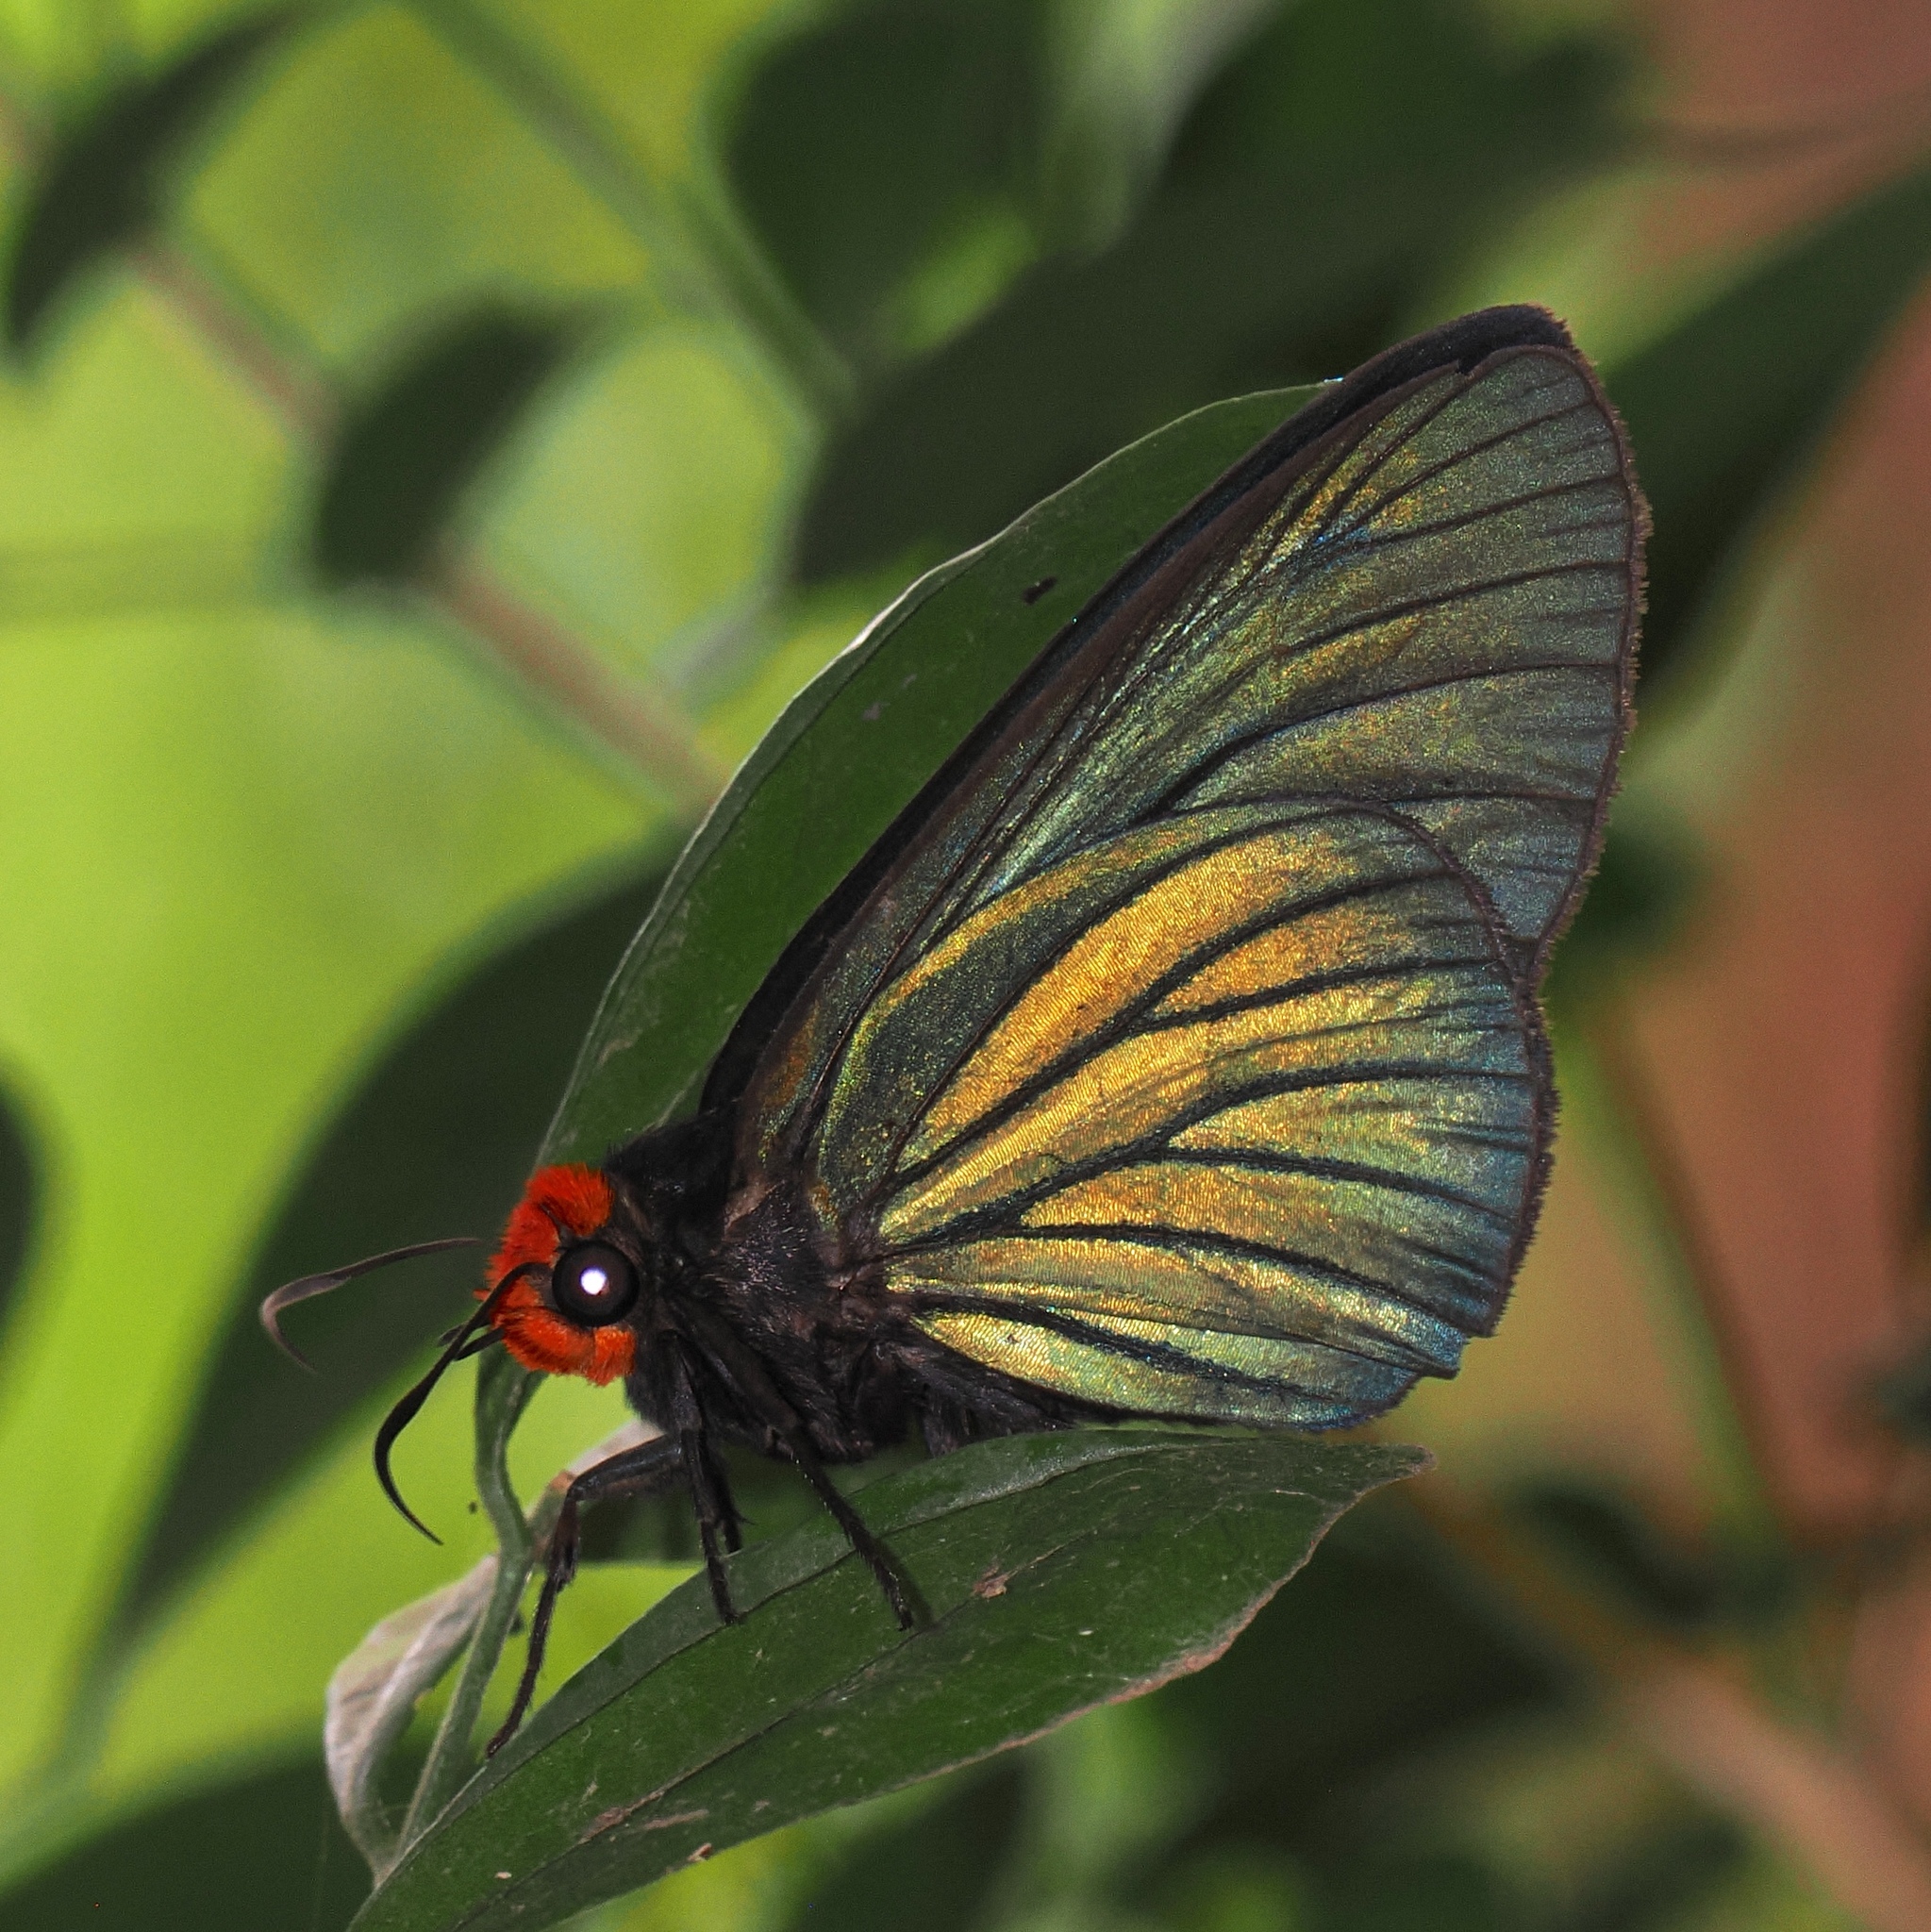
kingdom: Animalia
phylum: Arthropoda
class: Insecta
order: Lepidoptera
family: Hesperiidae
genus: Pyrrhochalcia
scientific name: Pyrrhochalcia iphis
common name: African giant skipper
